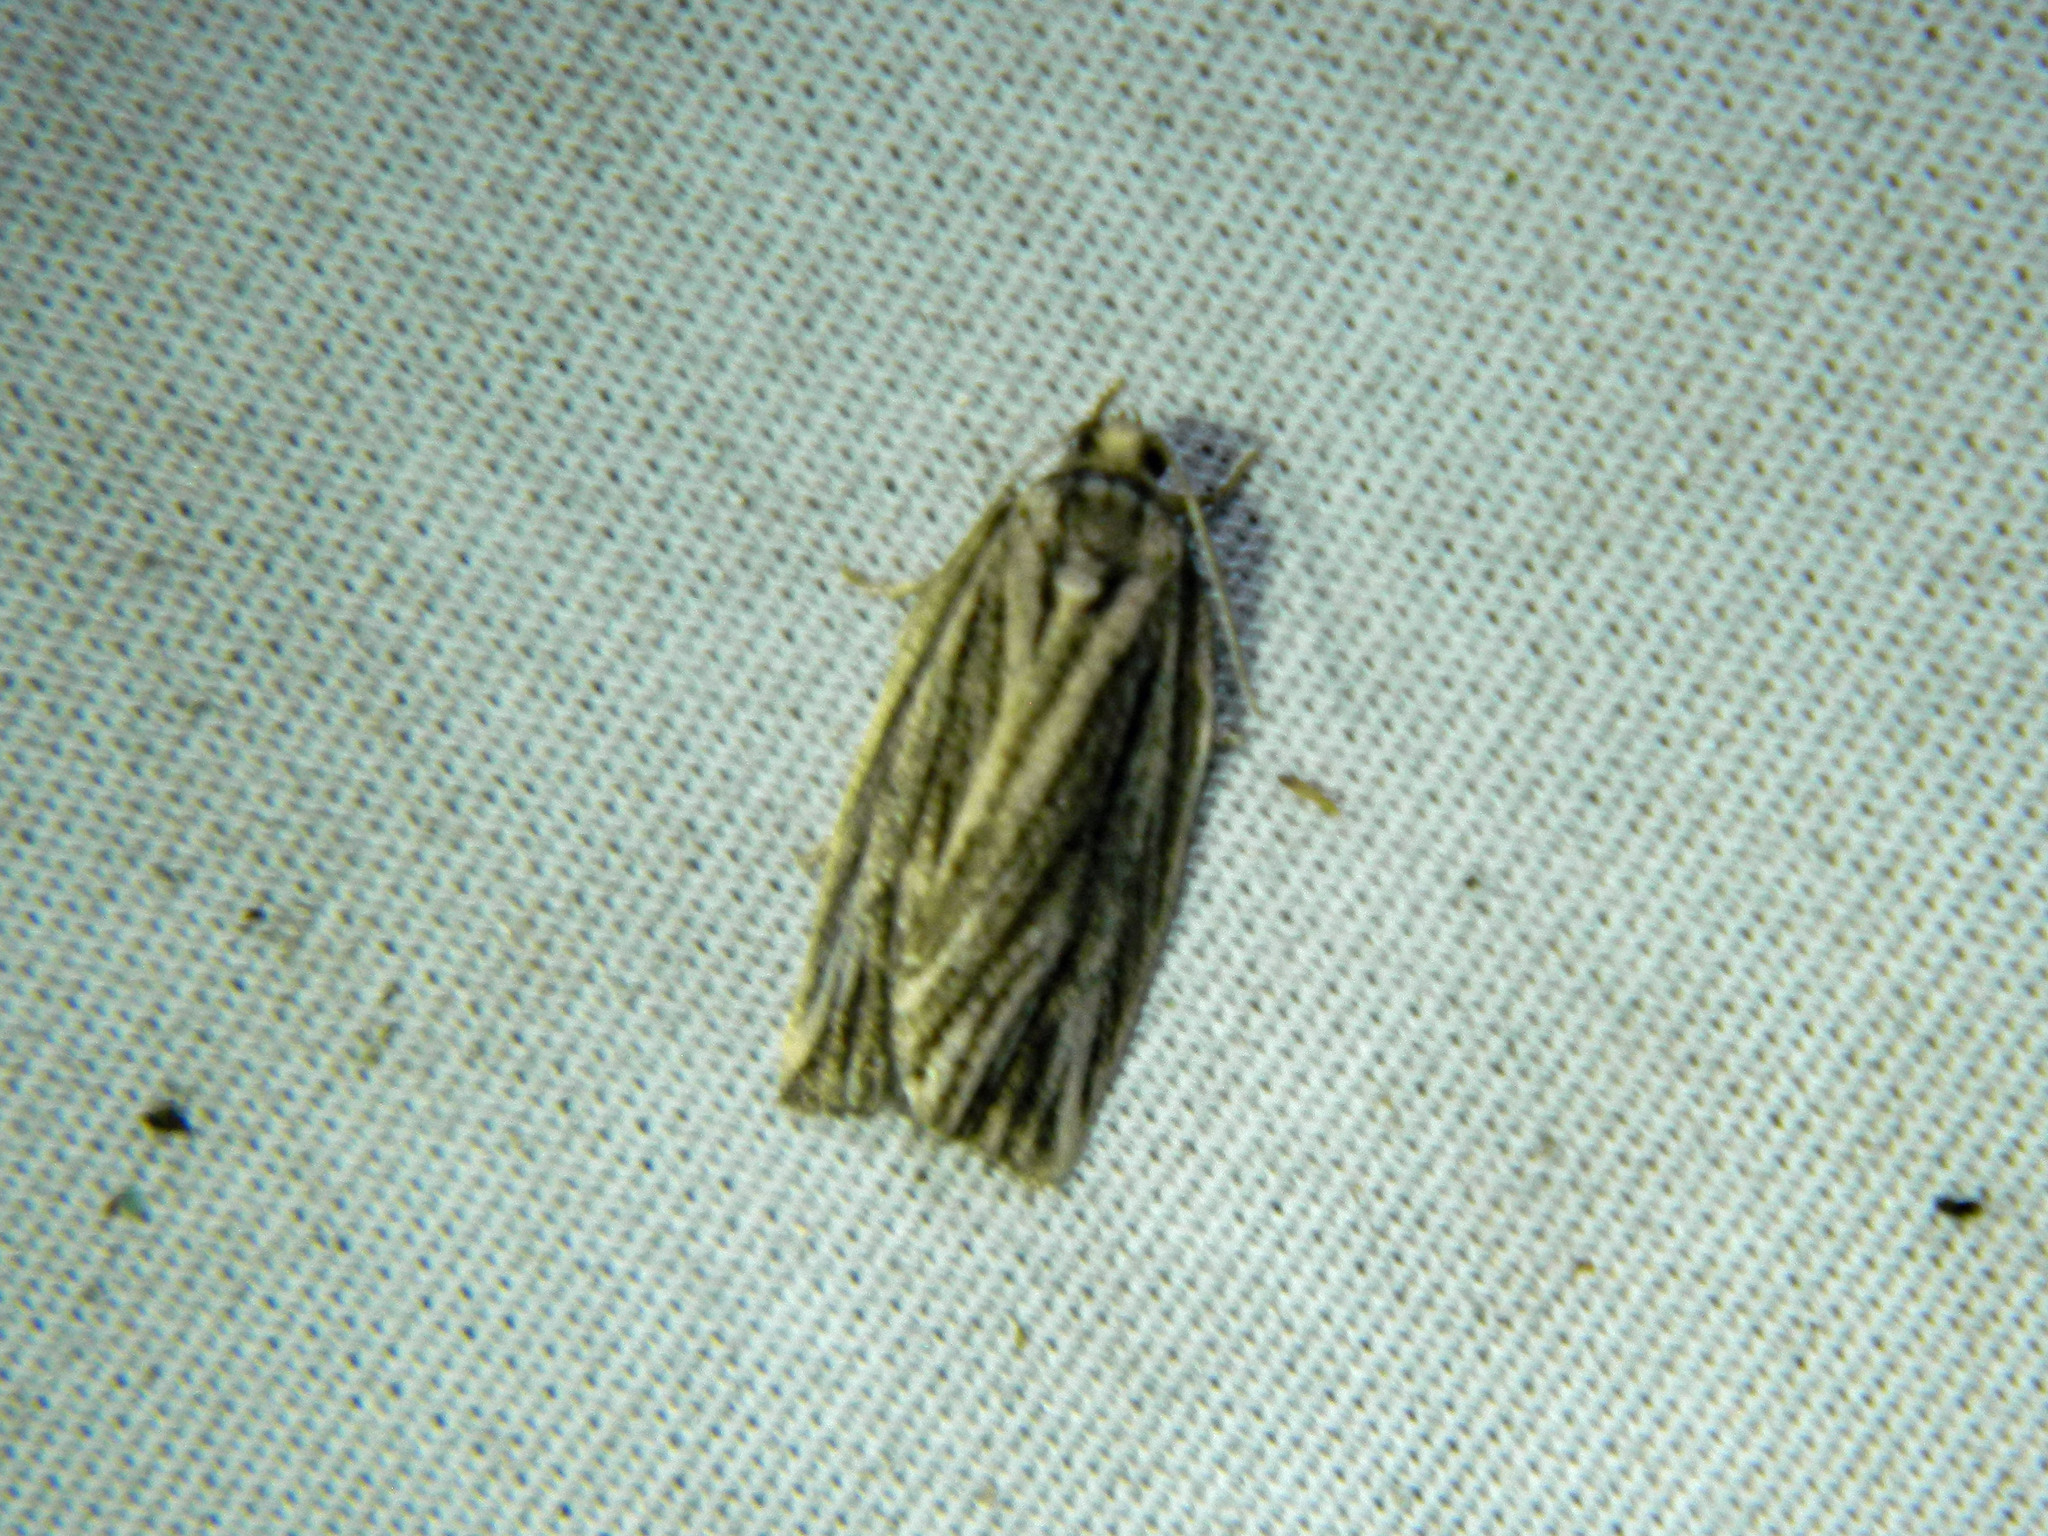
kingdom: Animalia
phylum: Arthropoda
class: Insecta
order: Lepidoptera
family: Tortricidae
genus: Archips
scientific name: Archips strianus
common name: Striated tortrix moth
